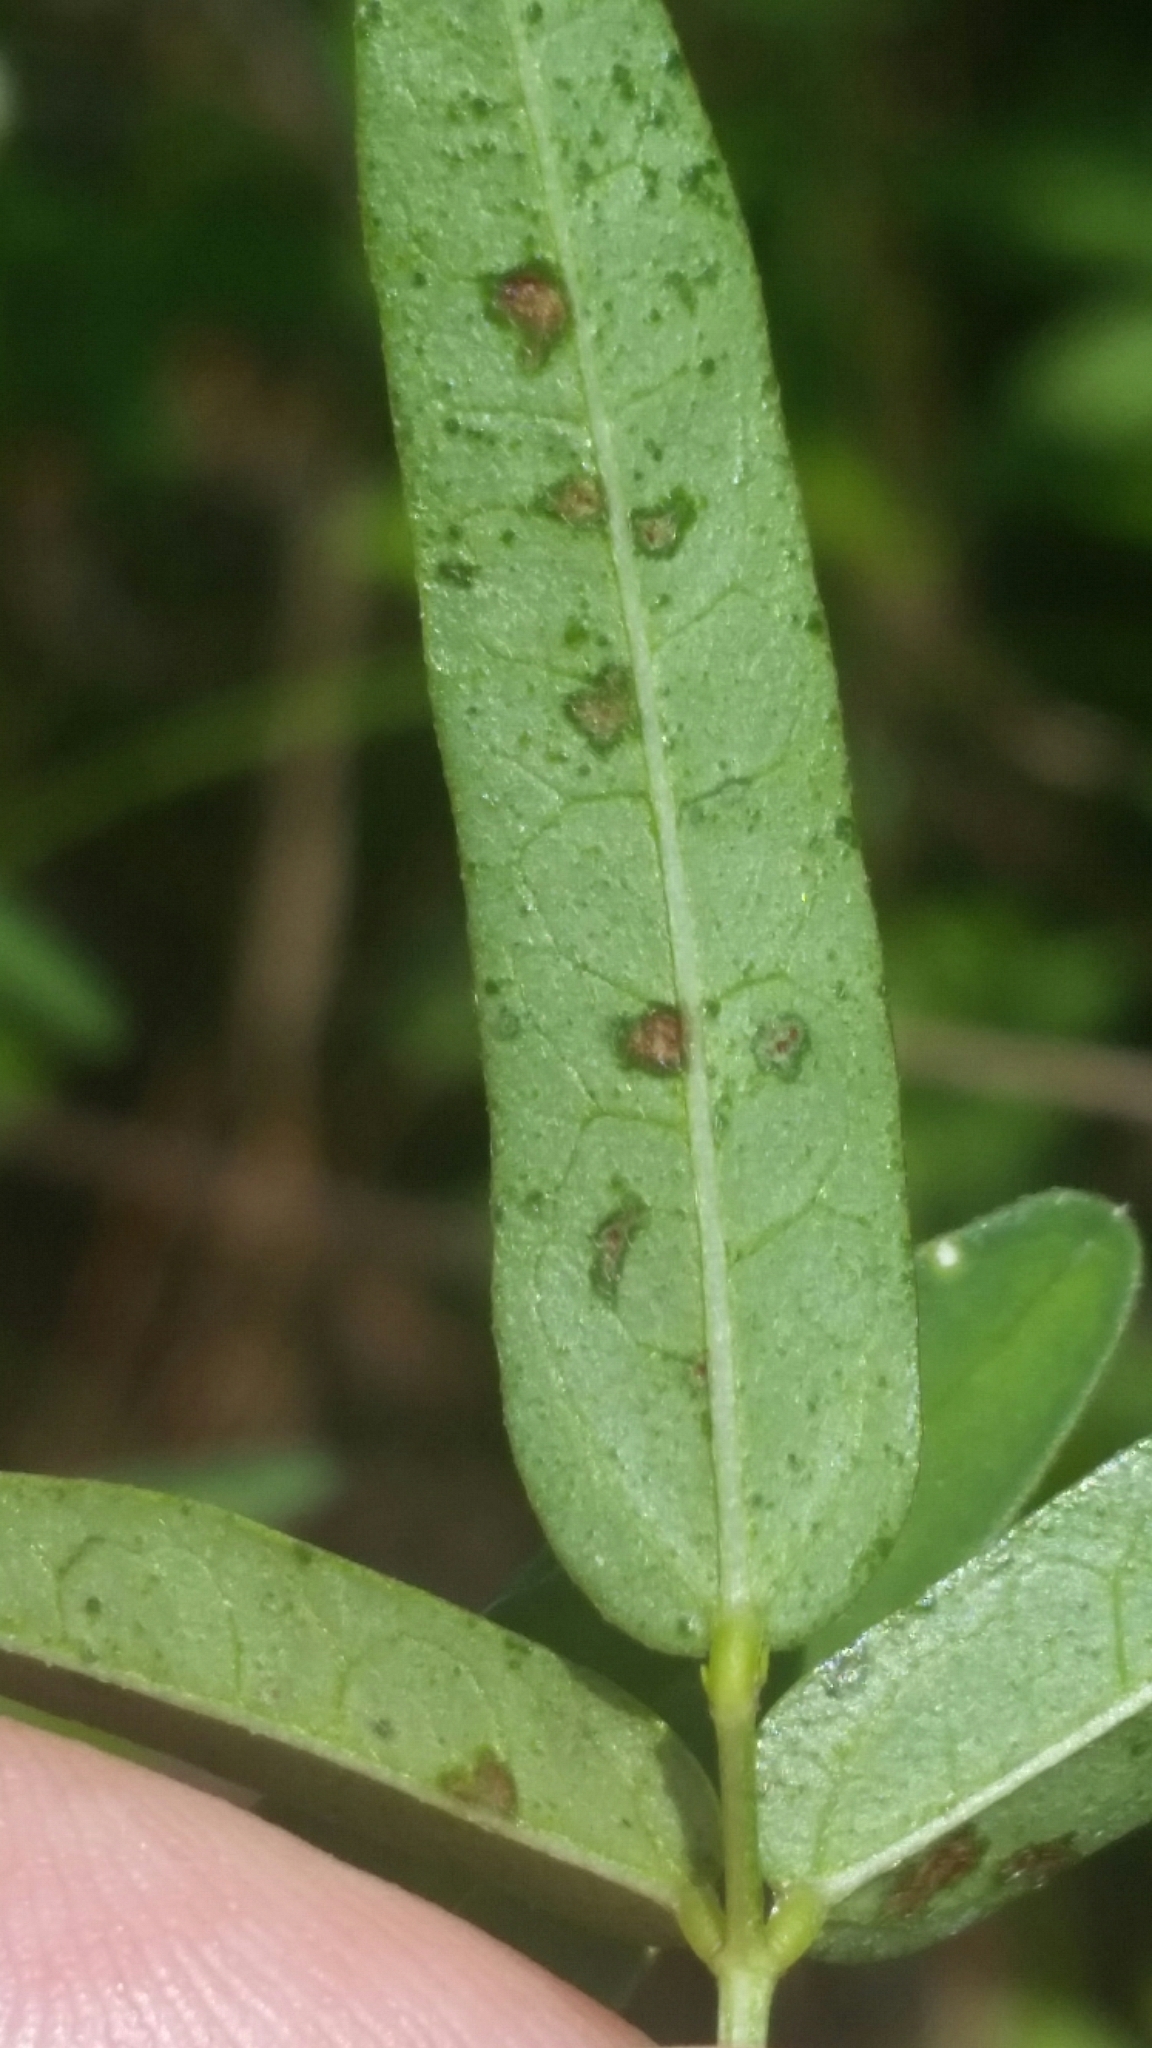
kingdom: Plantae
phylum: Tracheophyta
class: Magnoliopsida
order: Fabales
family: Fabaceae
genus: Macroptilium
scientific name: Macroptilium lathyroides
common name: Wild bushbean
